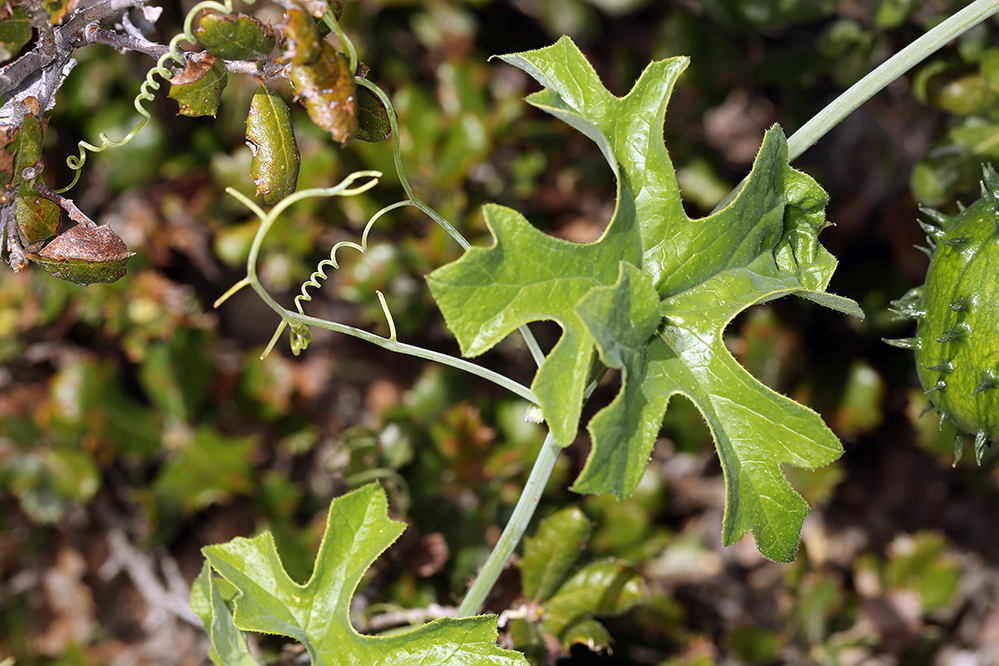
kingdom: Plantae
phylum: Tracheophyta
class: Magnoliopsida
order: Cucurbitales
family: Cucurbitaceae
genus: Marah
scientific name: Marah watsonii
